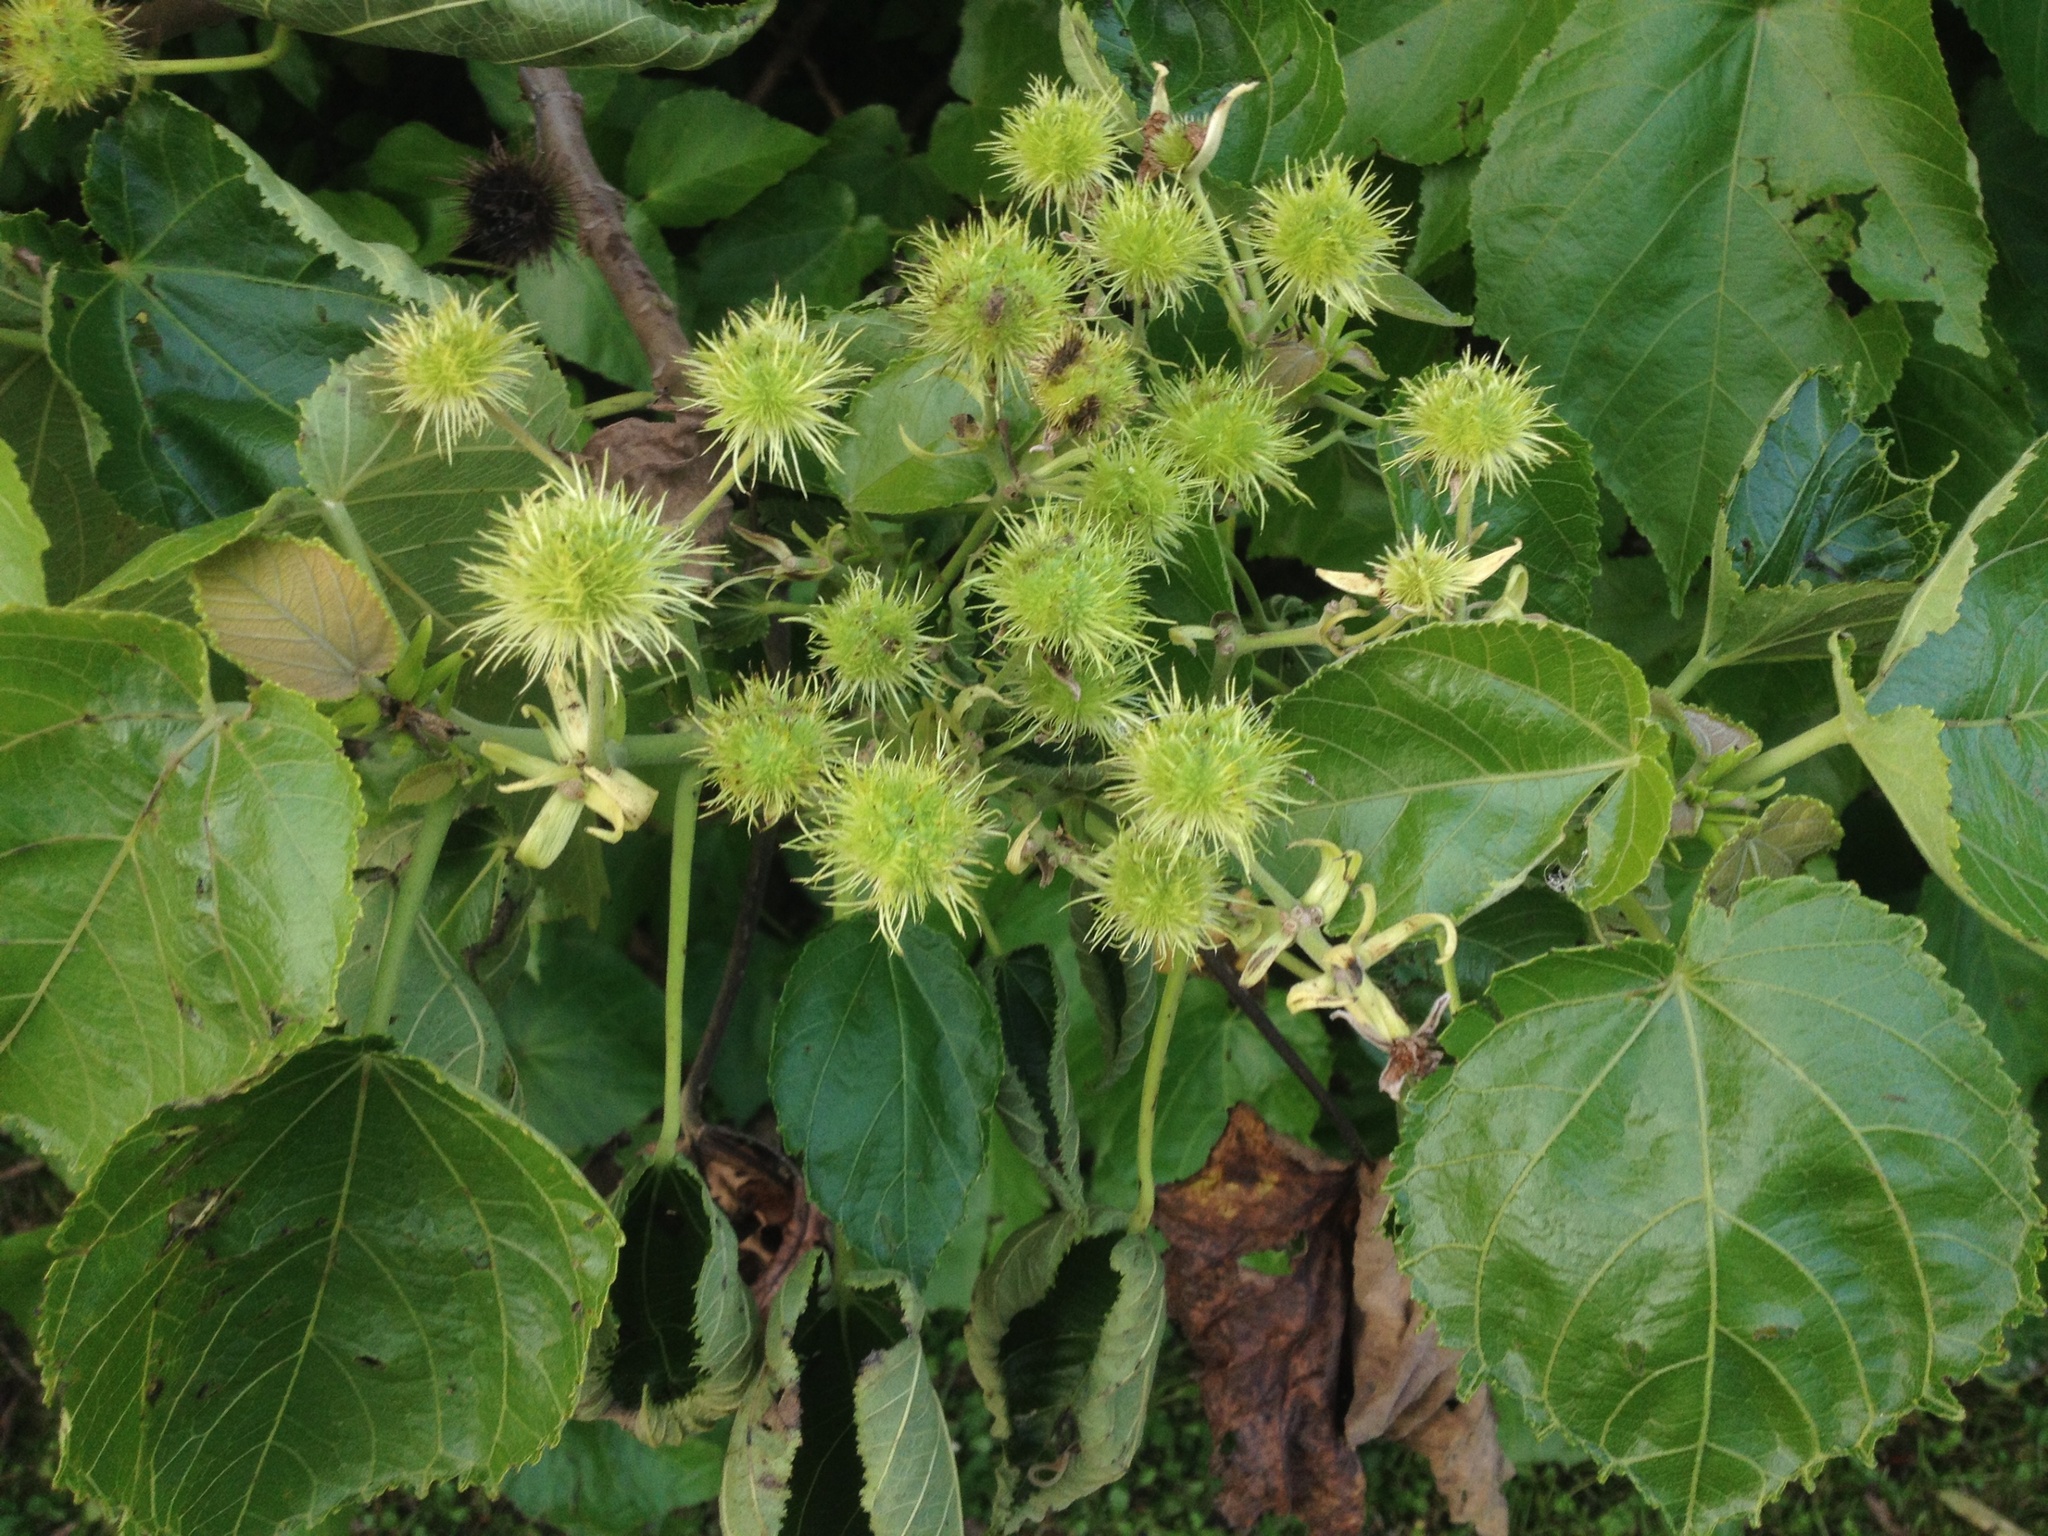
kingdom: Plantae
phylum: Tracheophyta
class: Magnoliopsida
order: Malvales
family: Malvaceae
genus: Entelea
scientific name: Entelea arborescens
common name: New zealand-mulberry
